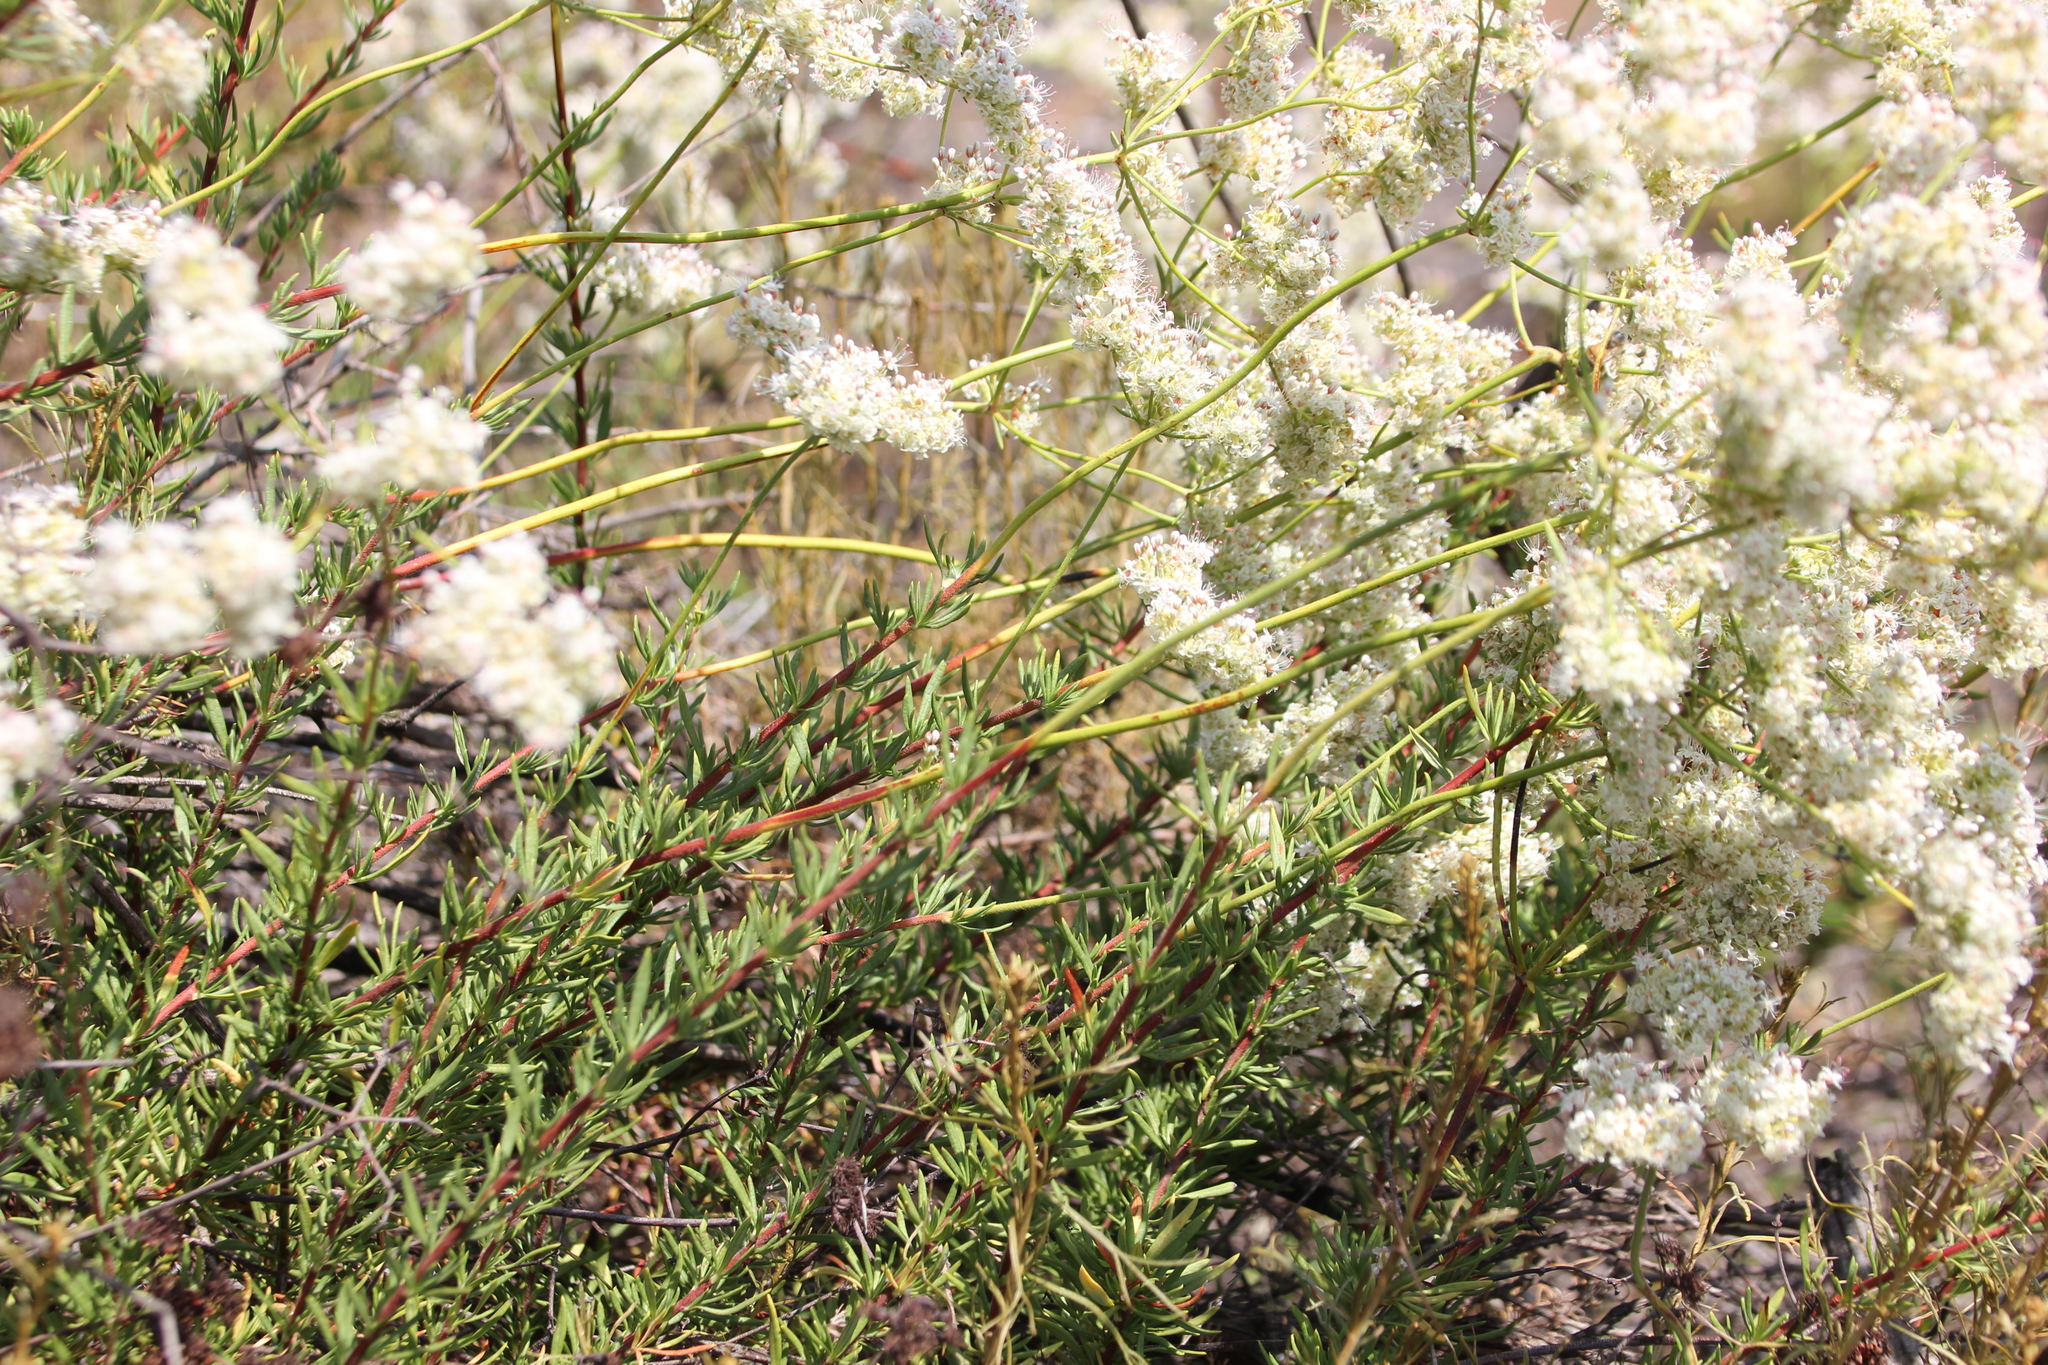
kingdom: Plantae
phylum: Tracheophyta
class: Magnoliopsida
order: Caryophyllales
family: Polygonaceae
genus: Eriogonum
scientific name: Eriogonum fasciculatum
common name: California wild buckwheat
